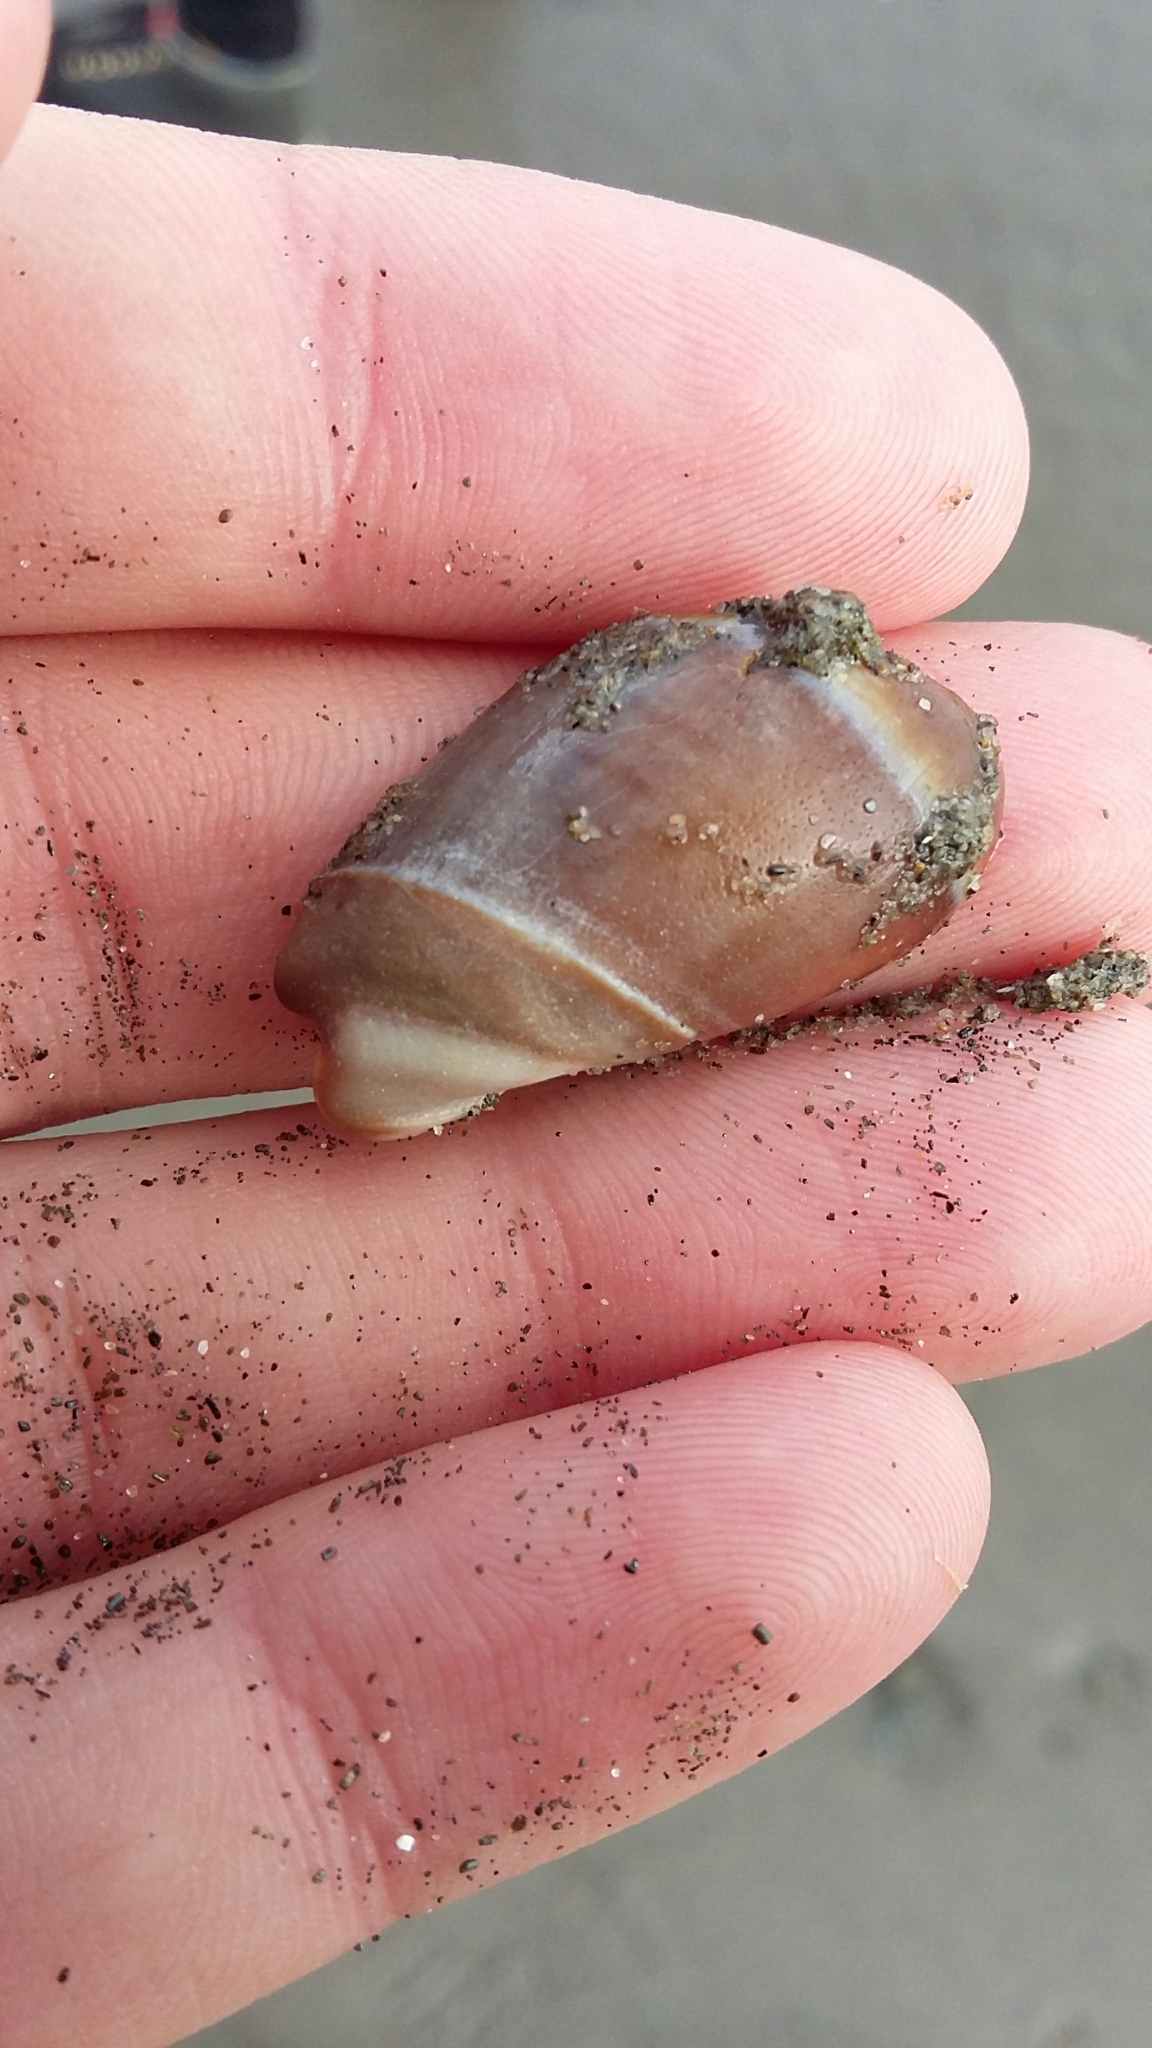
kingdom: Animalia
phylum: Mollusca
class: Gastropoda
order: Neogastropoda
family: Ancillariidae
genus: Amalda
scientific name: Amalda australis
